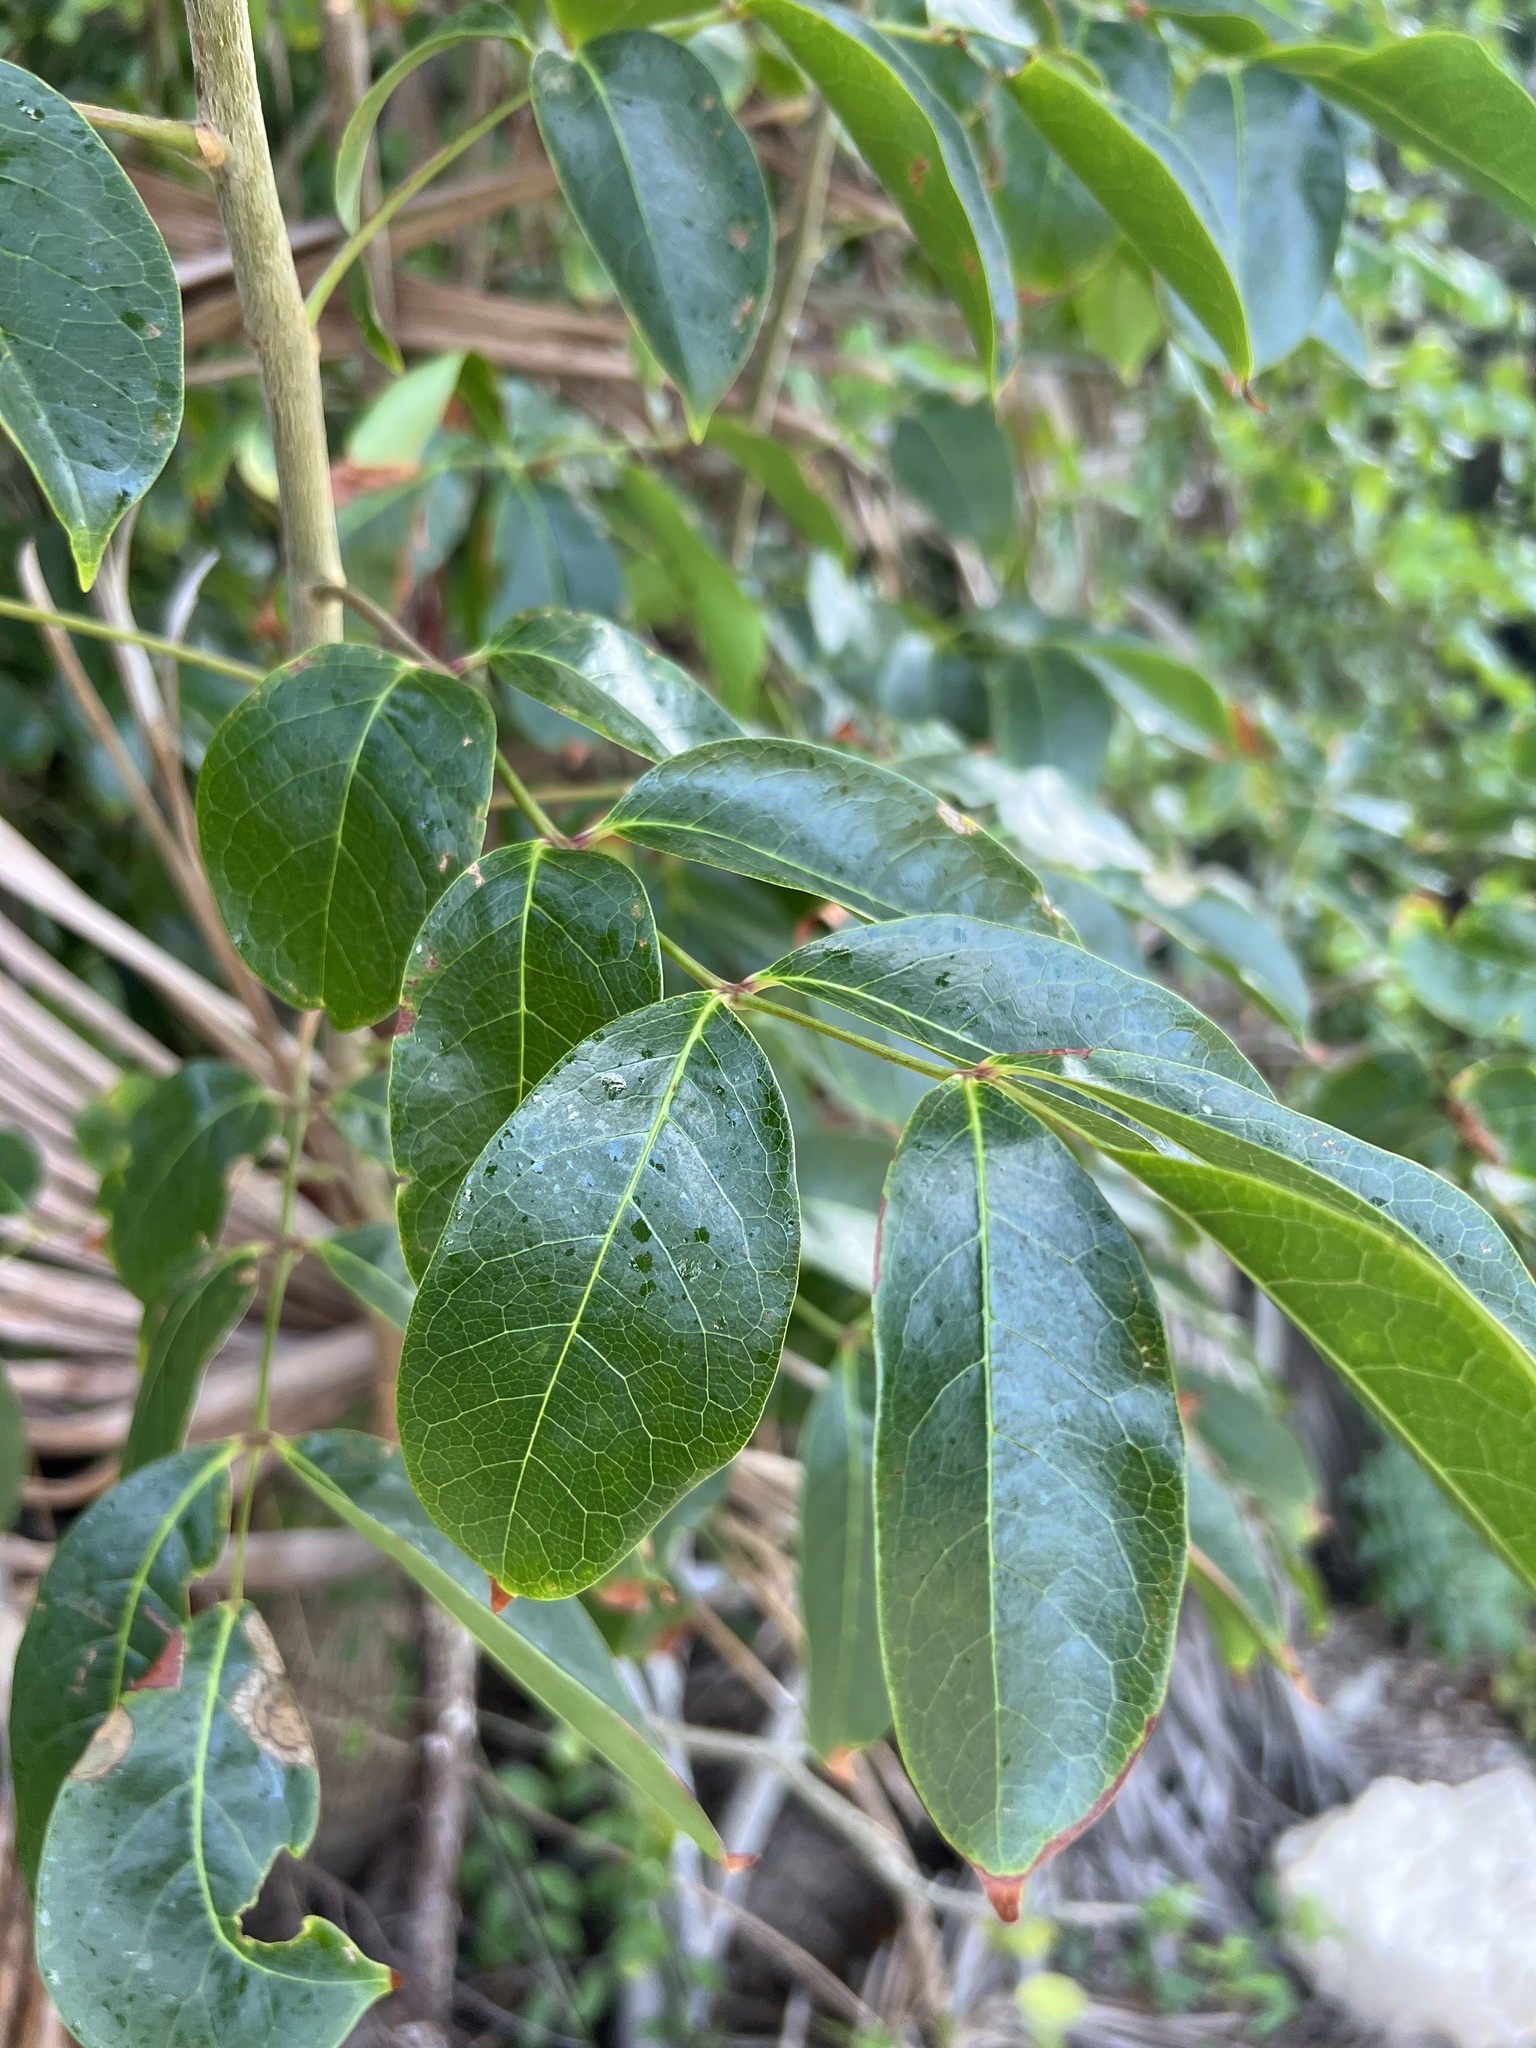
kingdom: Plantae
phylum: Tracheophyta
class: Magnoliopsida
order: Sapindales
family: Burseraceae
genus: Bursera
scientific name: Bursera simaruba
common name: Turpentine tree
